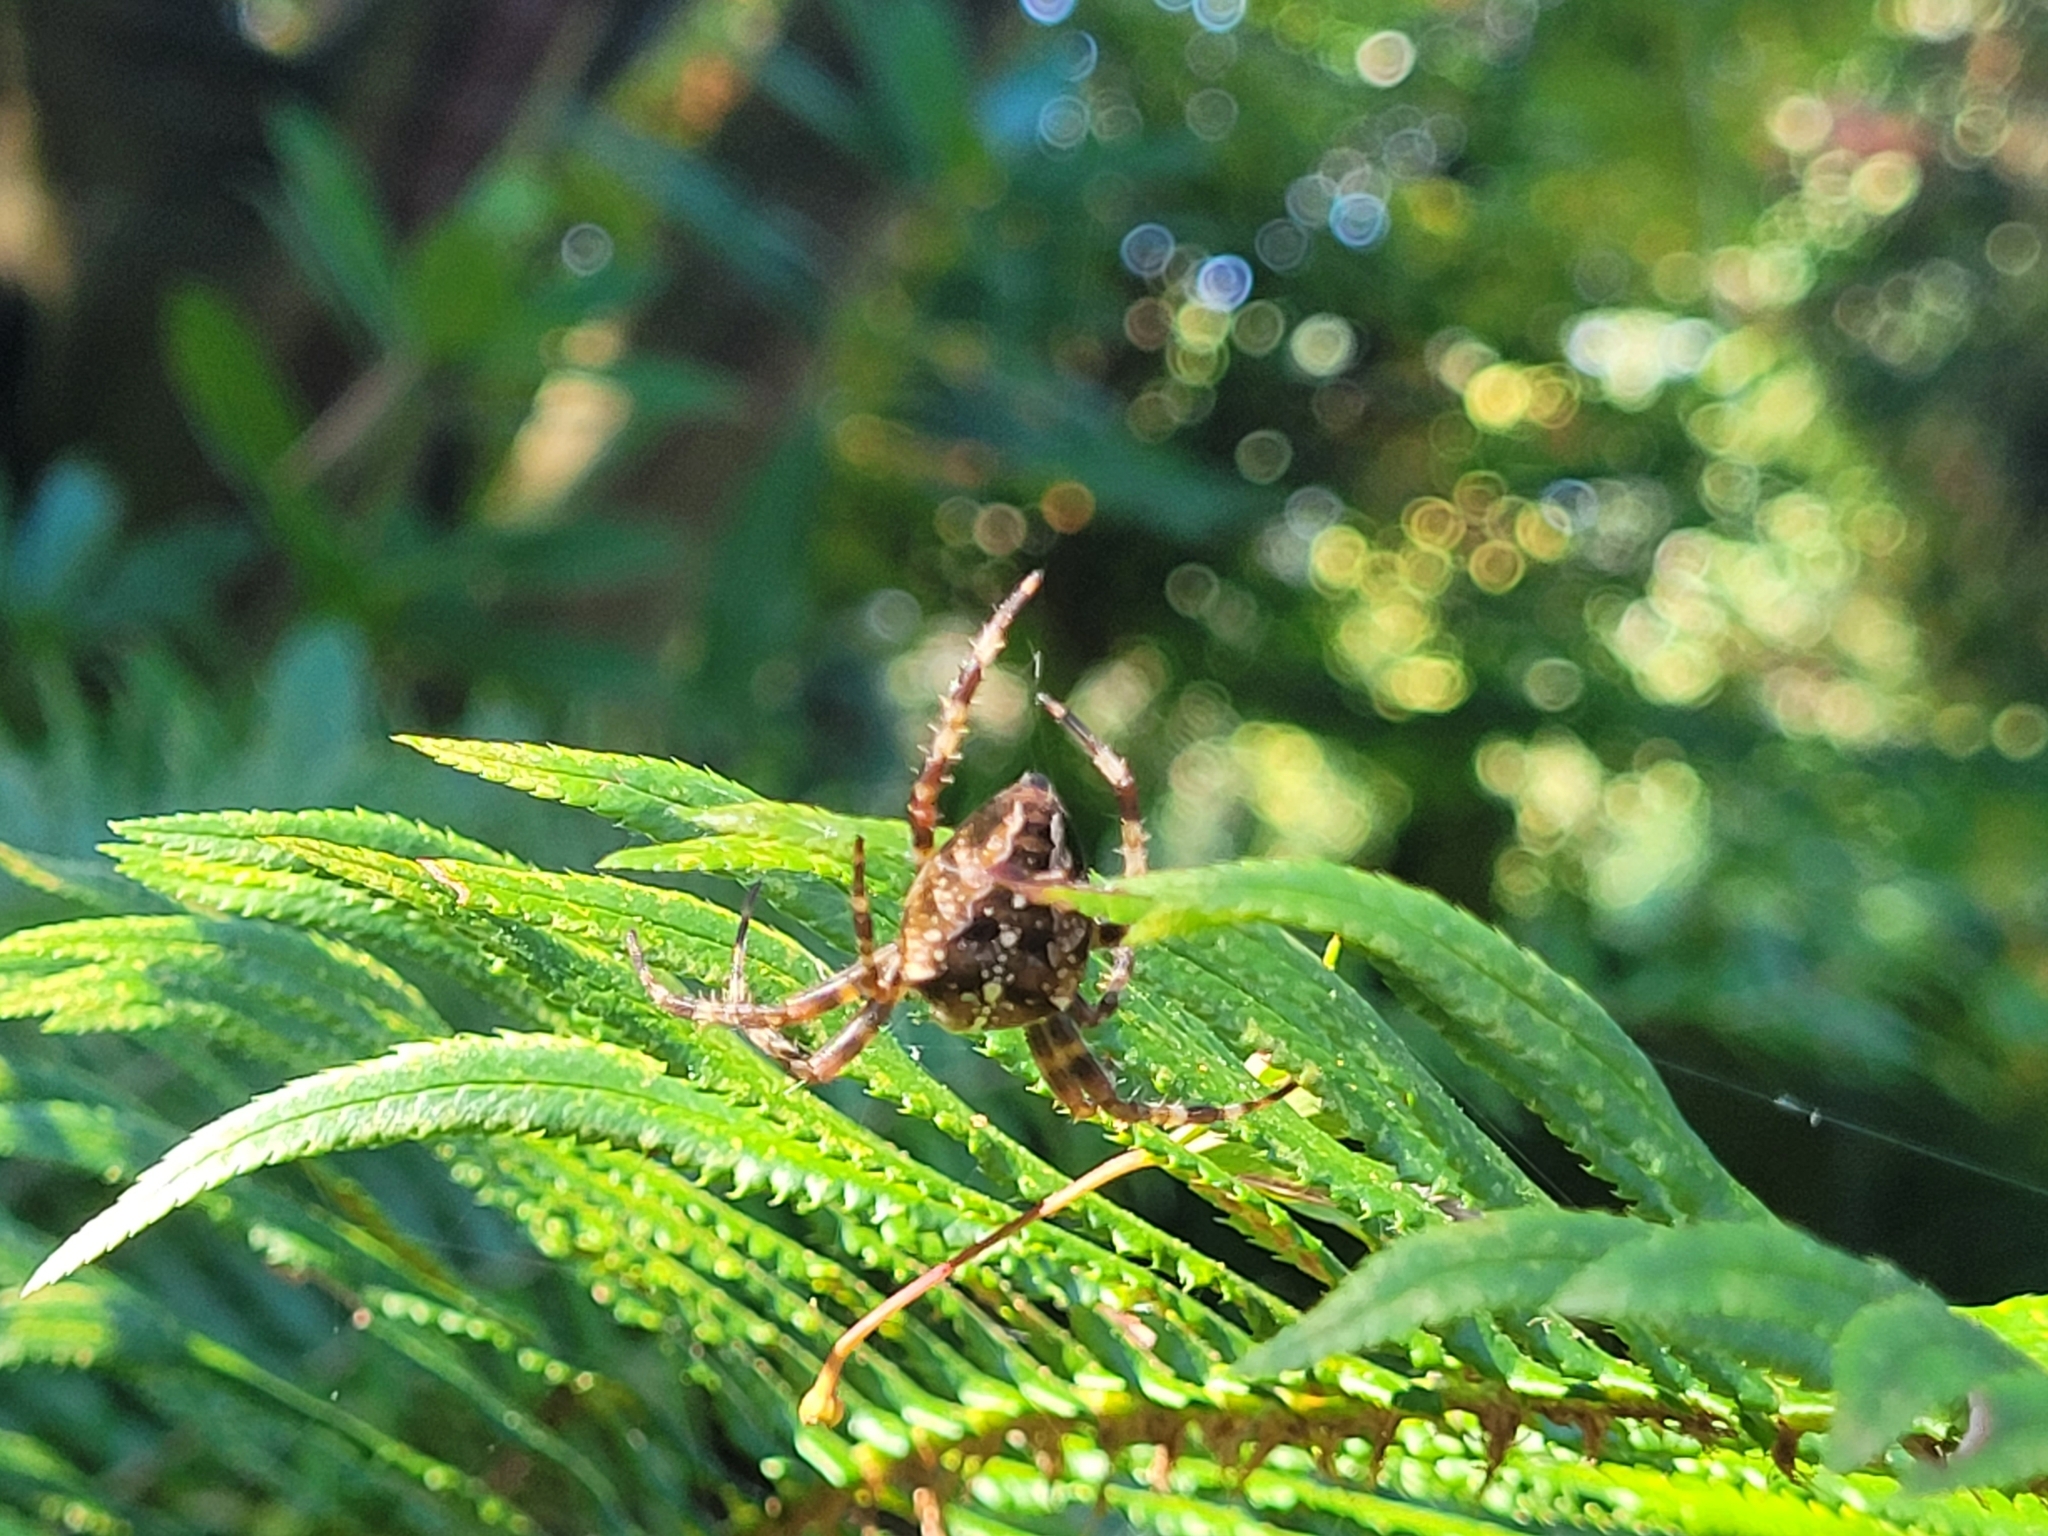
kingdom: Animalia
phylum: Arthropoda
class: Arachnida
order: Araneae
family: Araneidae
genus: Araneus
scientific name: Araneus diadematus
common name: Cross orbweaver
